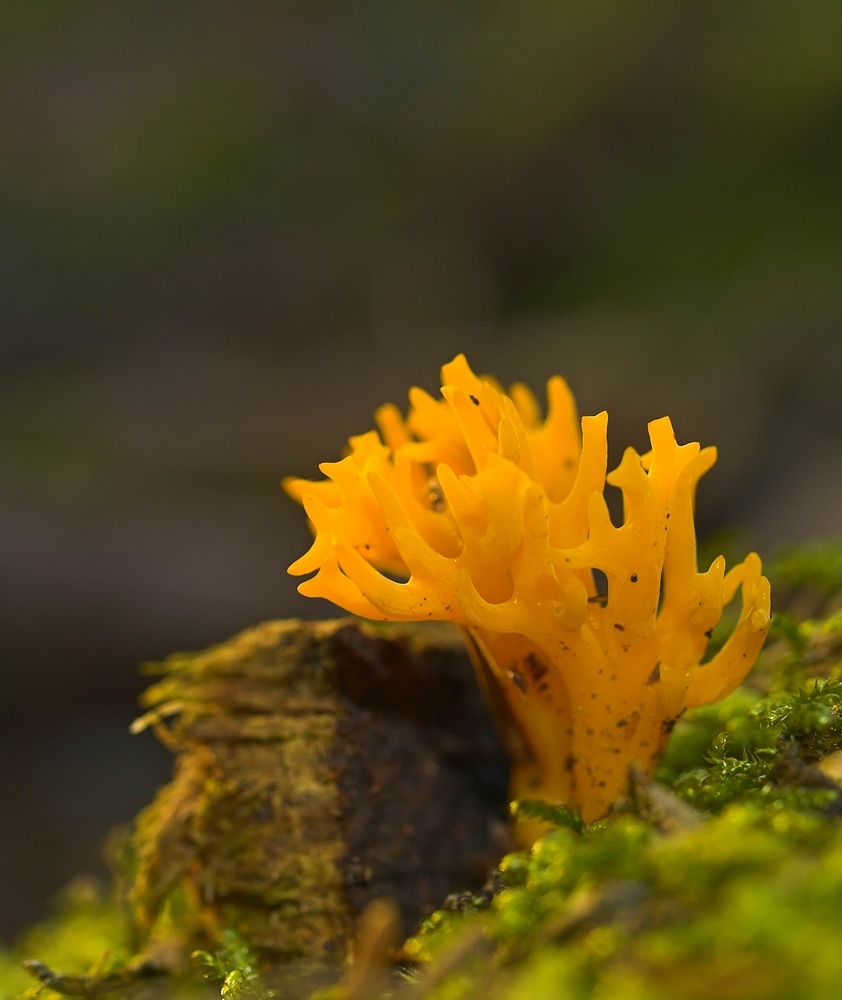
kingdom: Fungi
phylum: Basidiomycota
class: Dacrymycetes
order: Dacrymycetales
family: Dacrymycetaceae
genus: Calocera
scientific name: Calocera viscosa
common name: Yellow stagshorn
